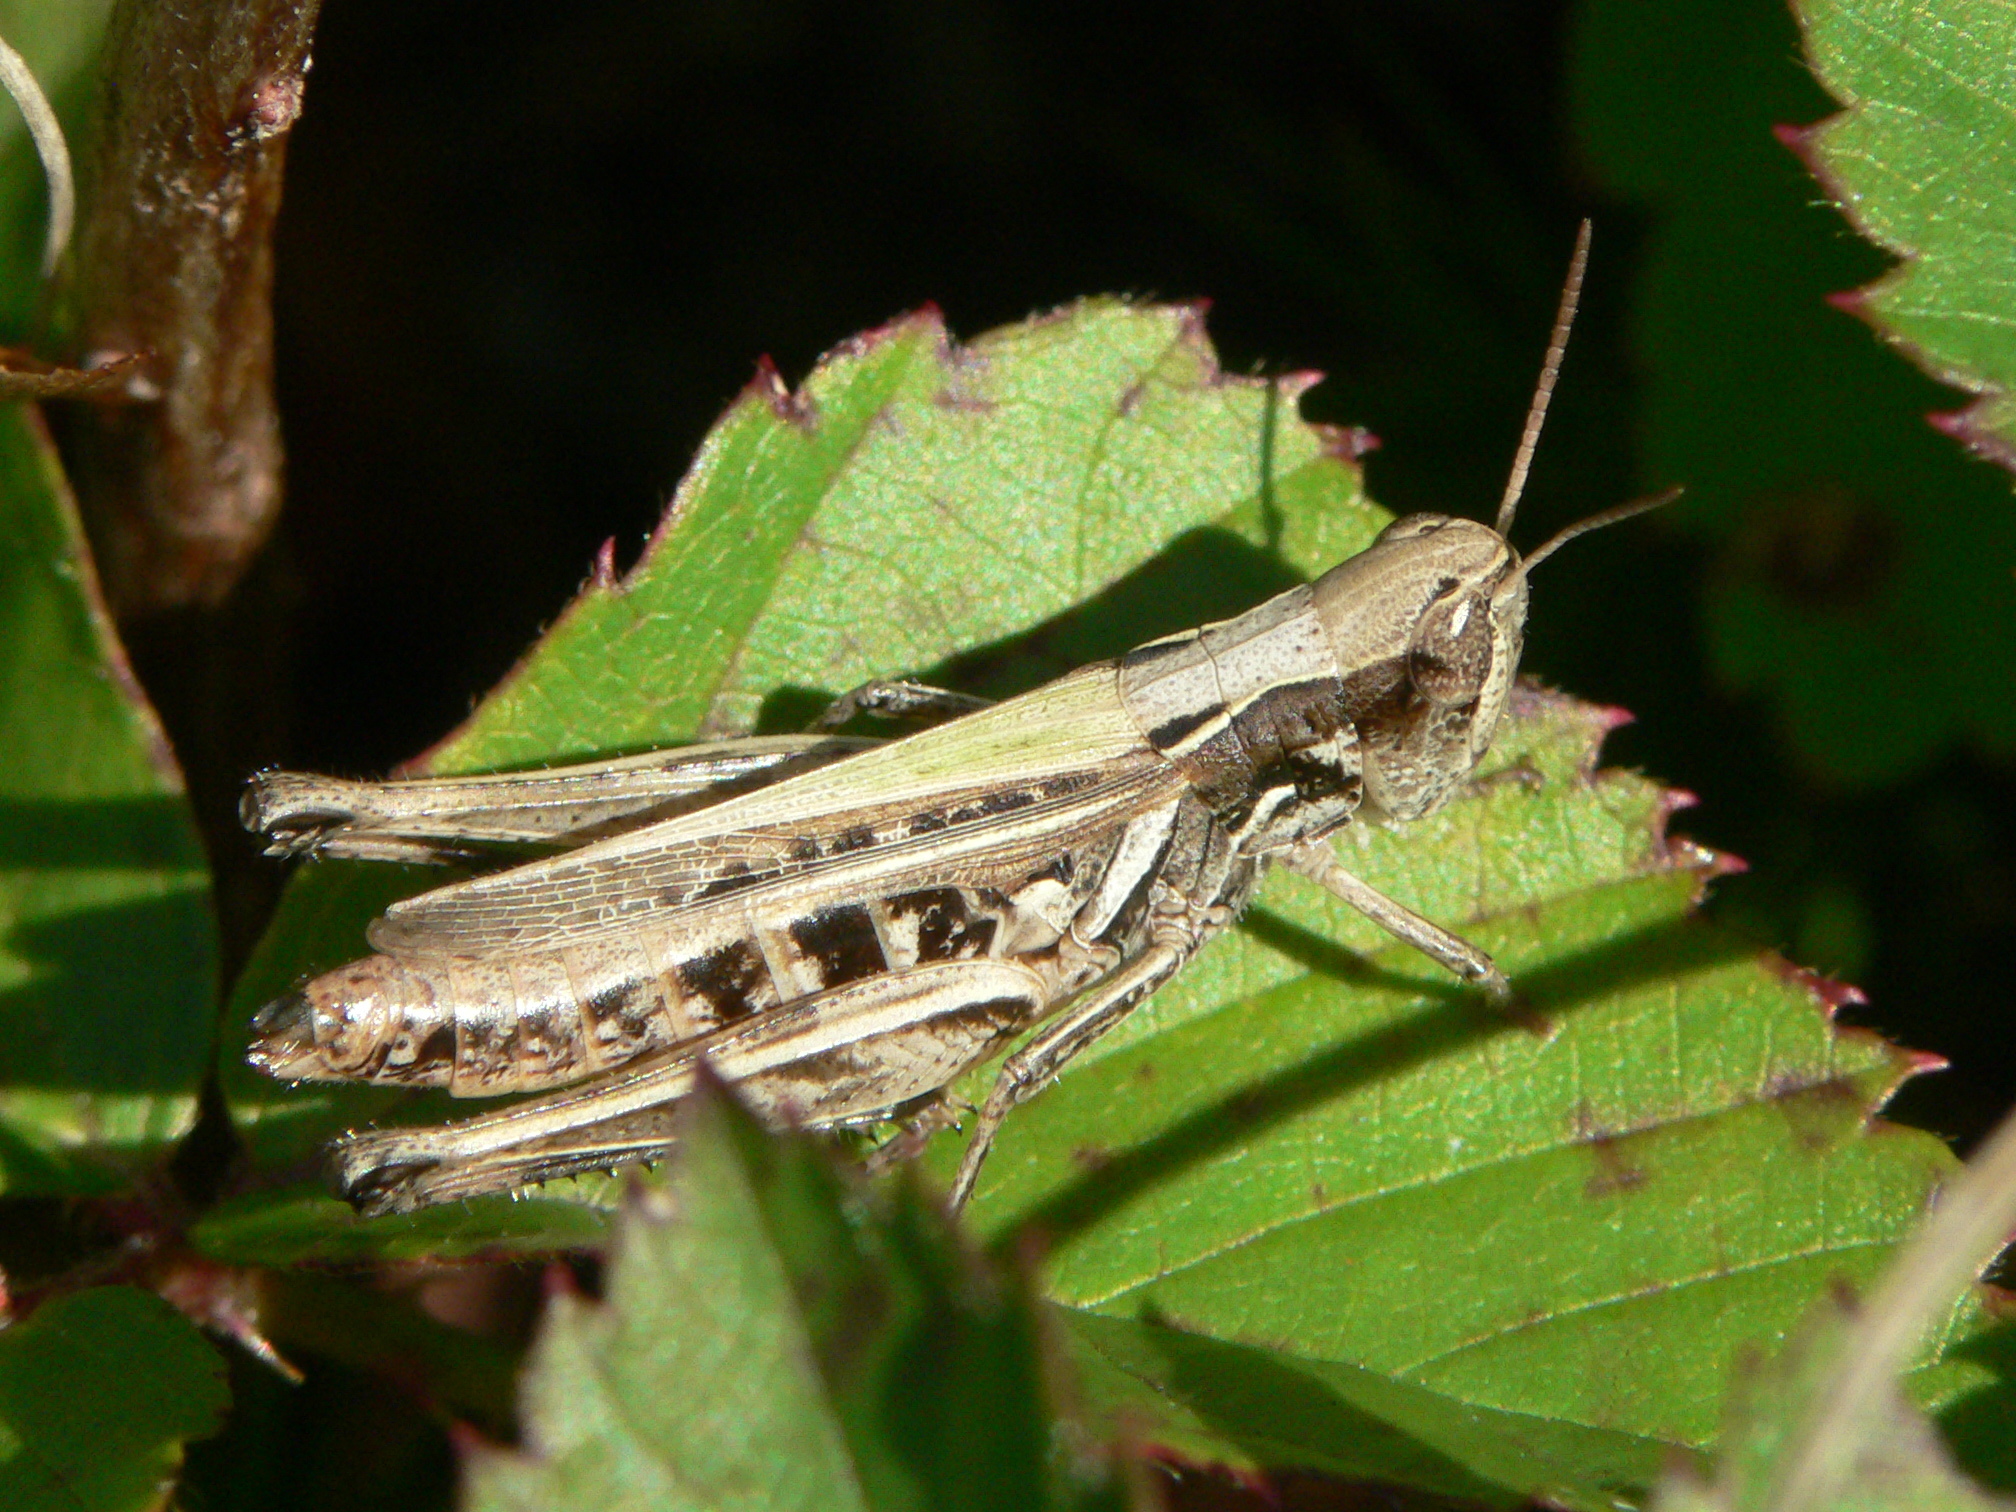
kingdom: Animalia
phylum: Arthropoda
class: Insecta
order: Orthoptera
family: Acrididae
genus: Orphulella
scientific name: Orphulella speciosa
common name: Pasture grasshopper
